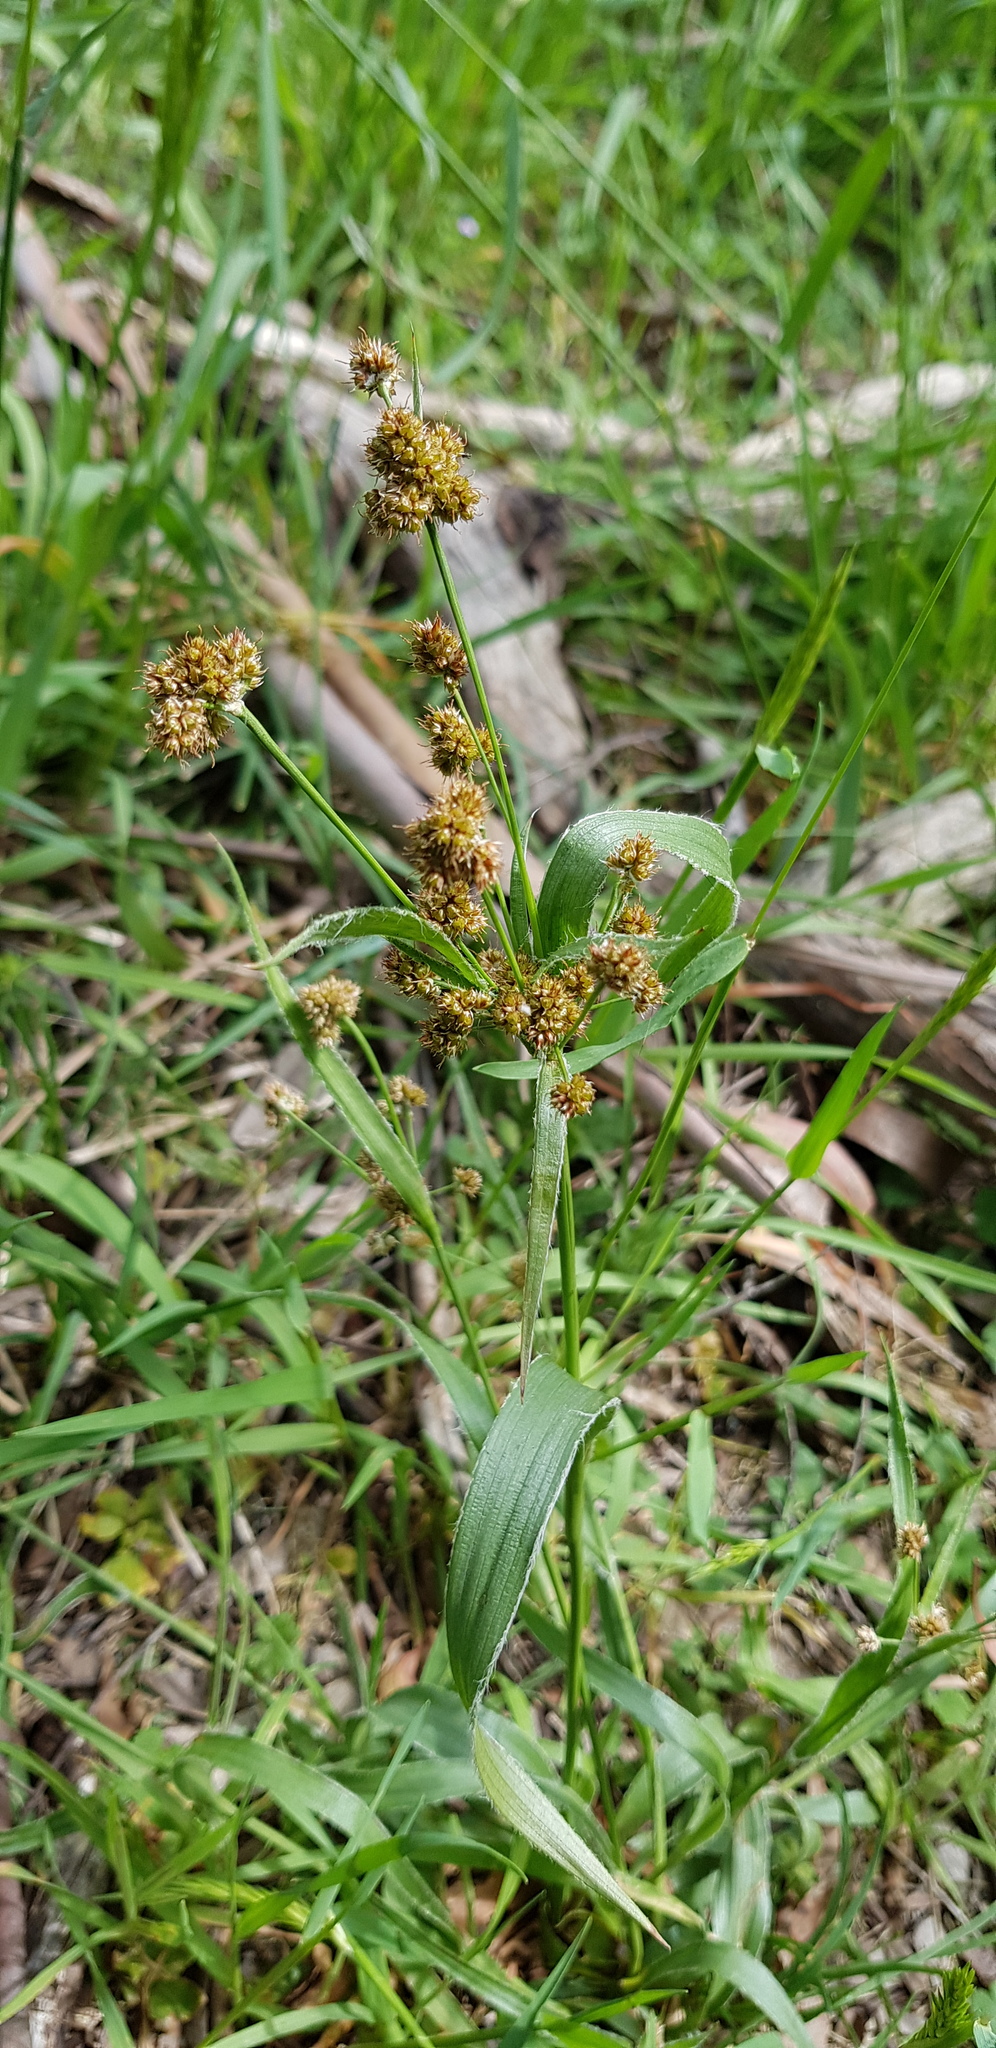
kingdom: Plantae
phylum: Tracheophyta
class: Liliopsida
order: Poales
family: Juncaceae
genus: Luzula
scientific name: Luzula meridionalis
